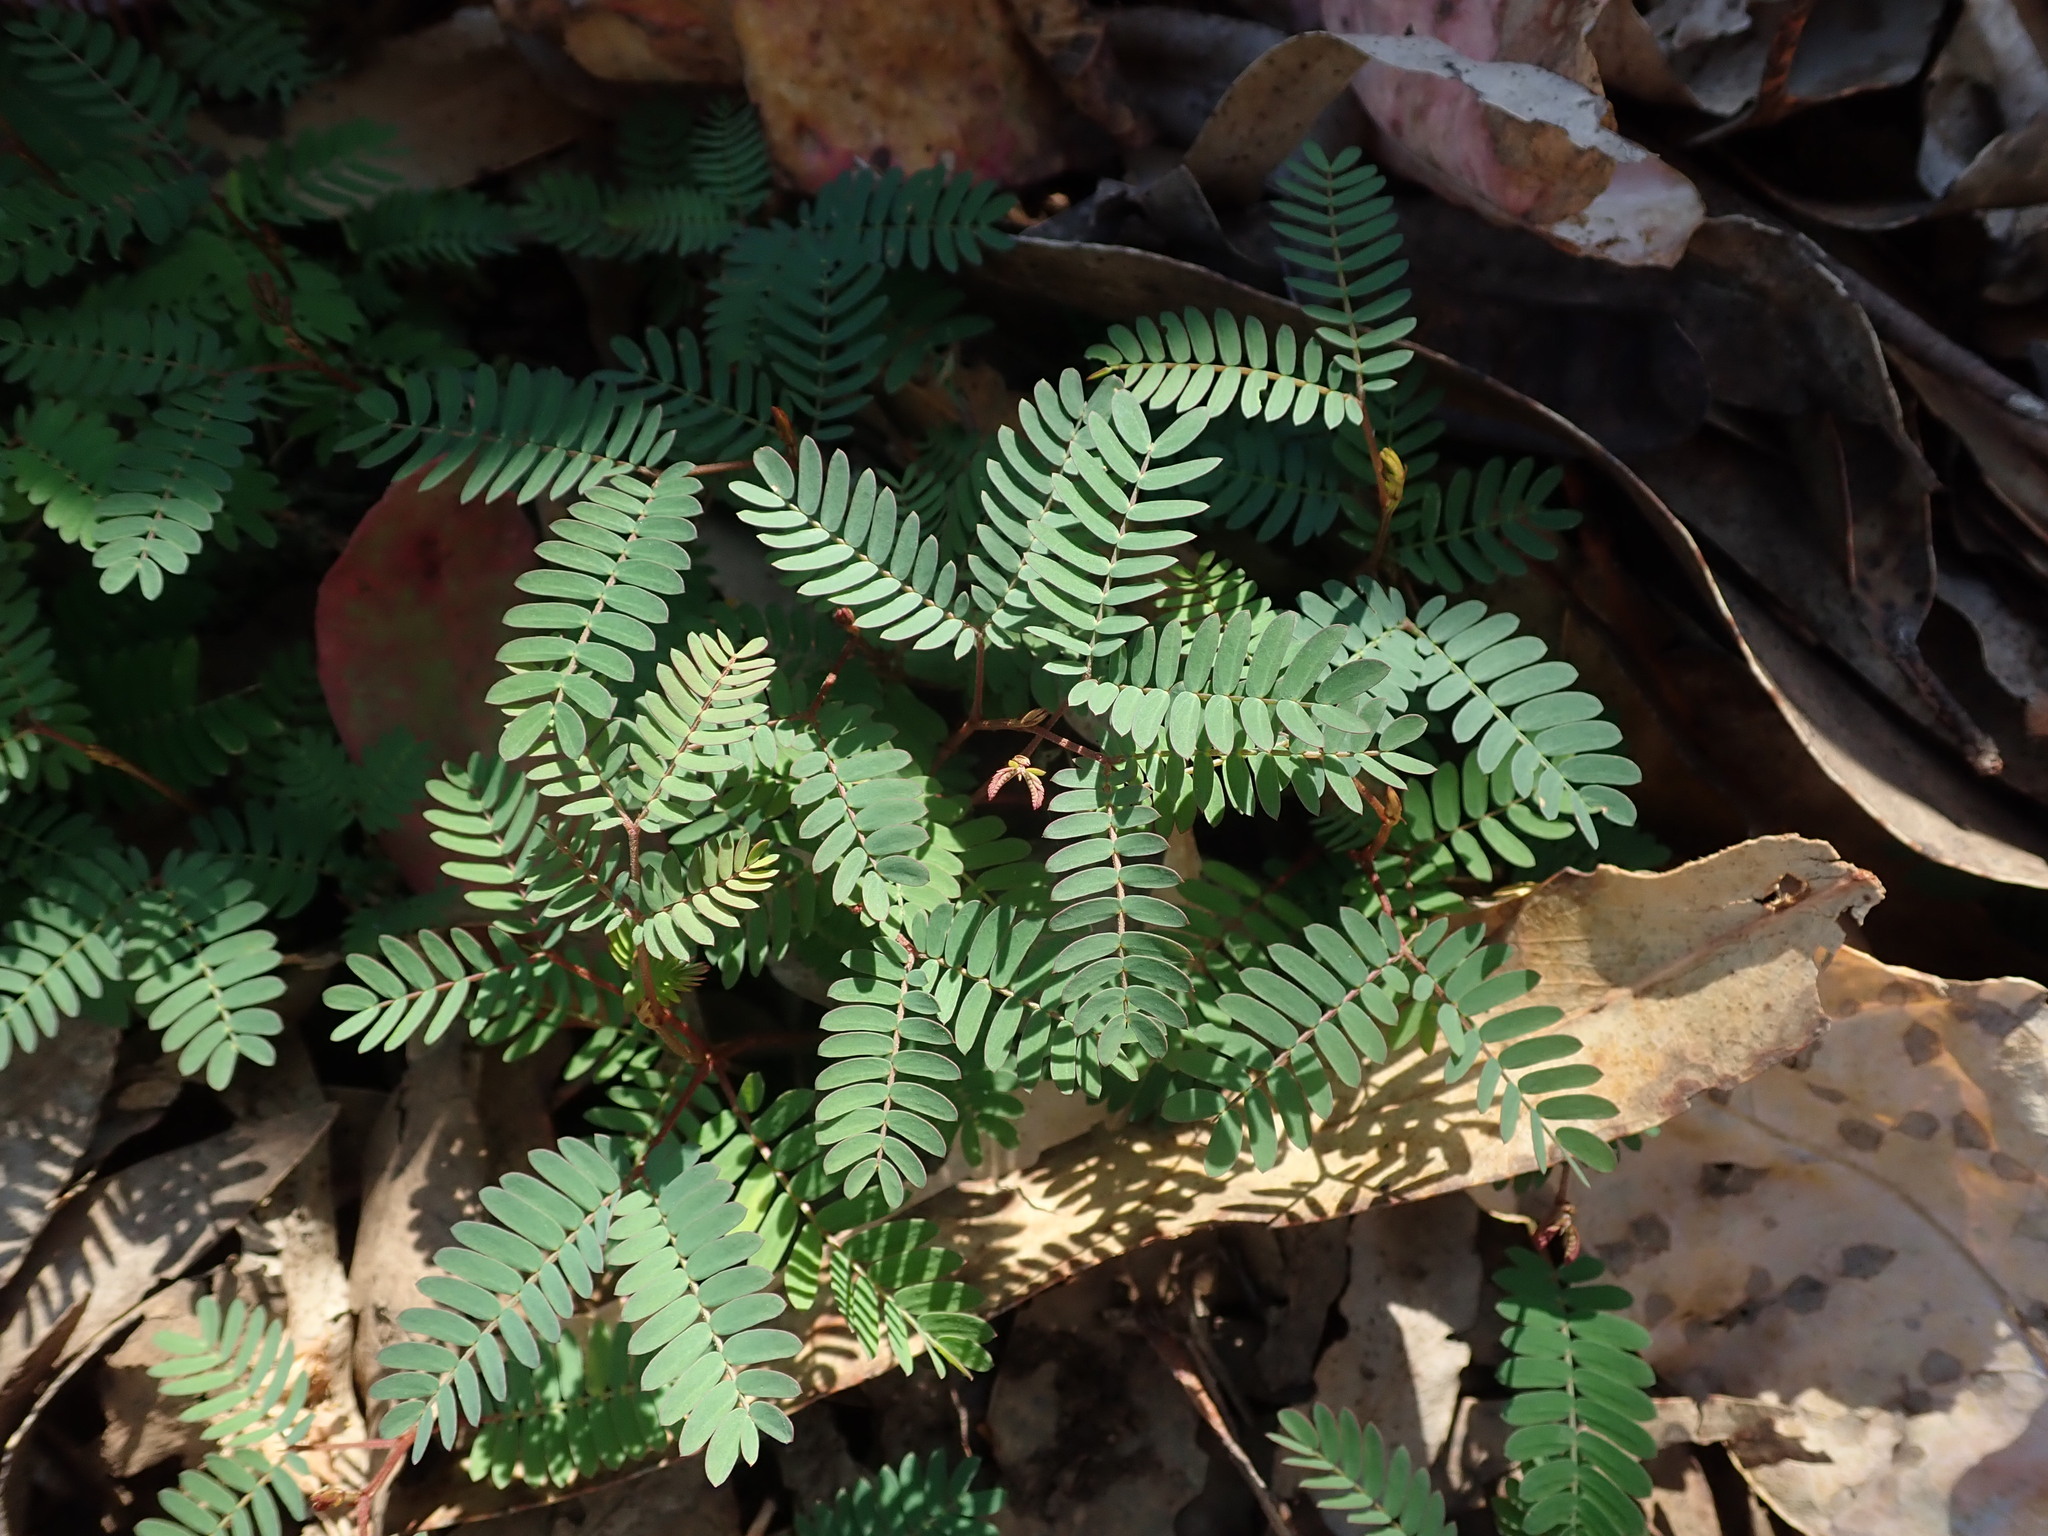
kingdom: Plantae
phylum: Tracheophyta
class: Magnoliopsida
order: Fabales
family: Fabaceae
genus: Mimosa
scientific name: Mimosa pudica
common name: Sensitive plant
